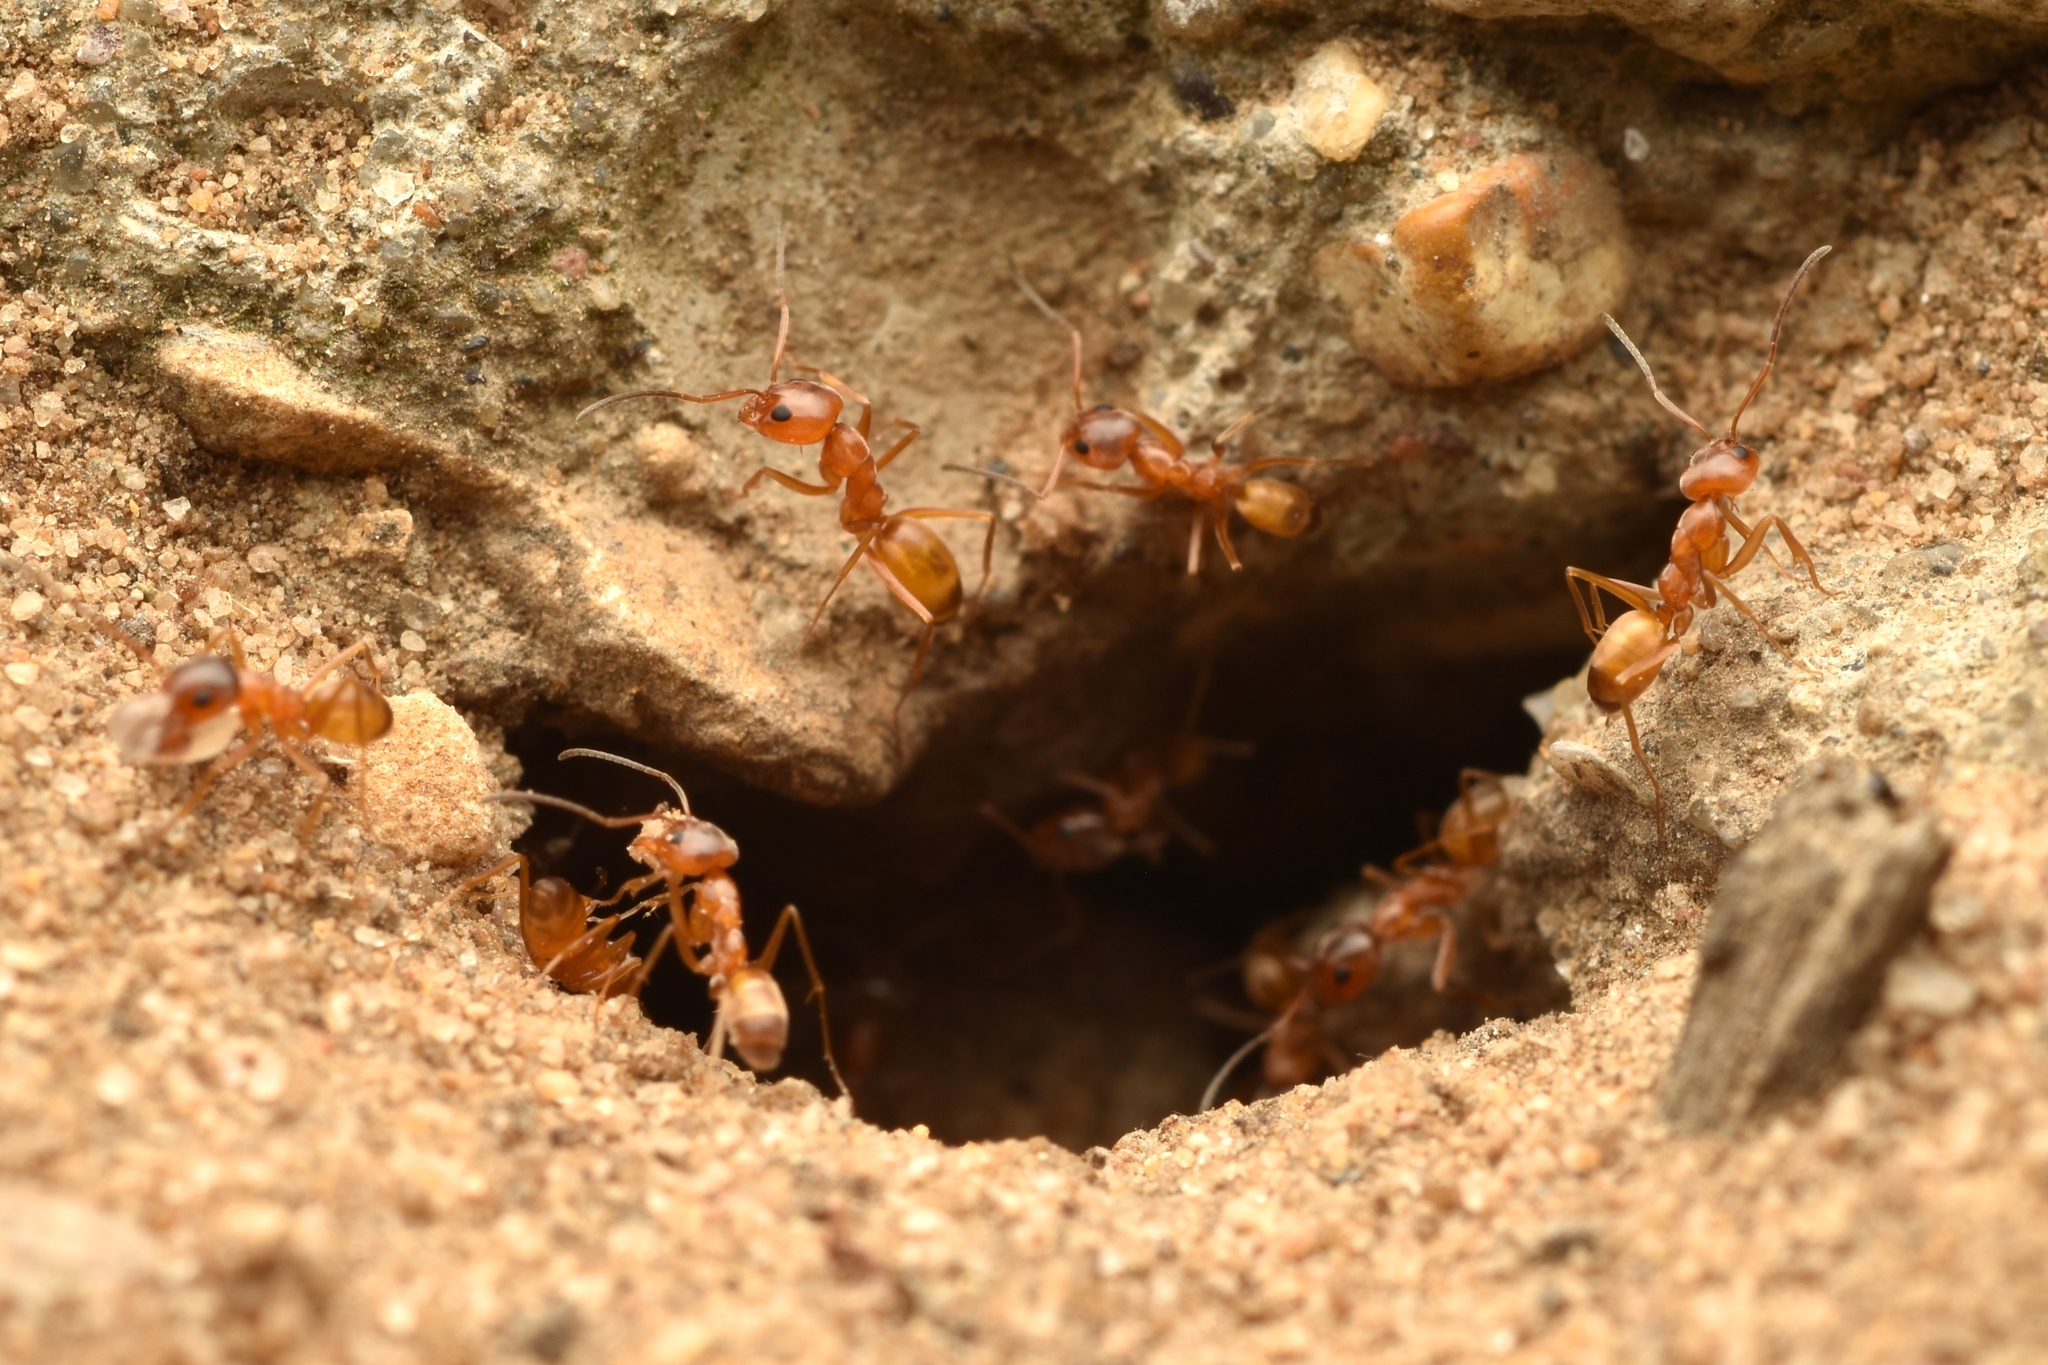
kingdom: Animalia
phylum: Arthropoda
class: Insecta
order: Hymenoptera
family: Formicidae
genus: Dorymyrmex
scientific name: Dorymyrmex flavus
